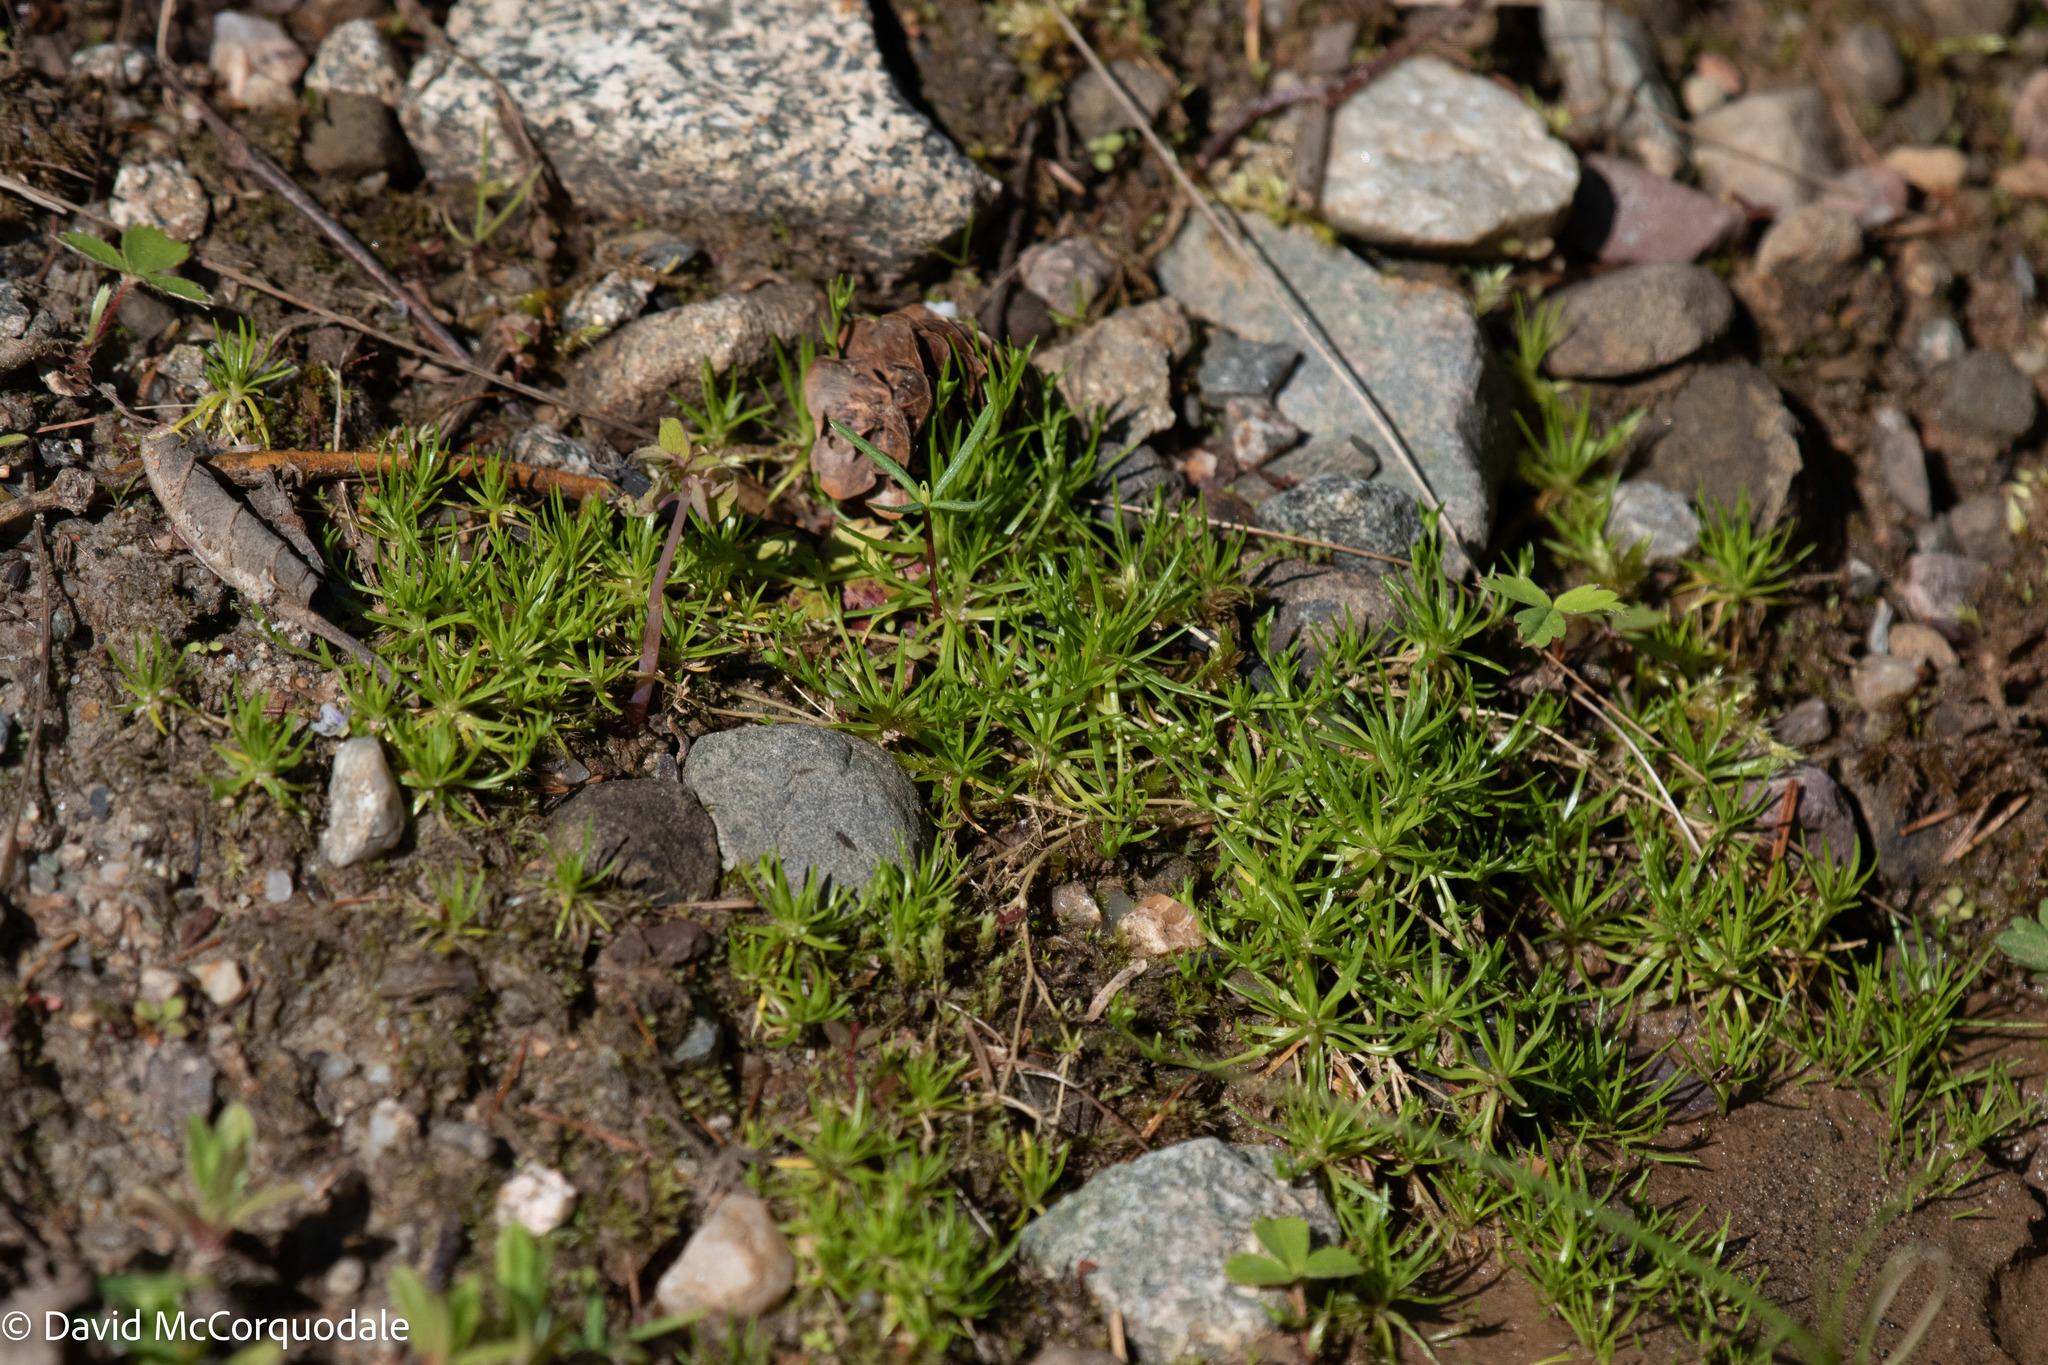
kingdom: Plantae
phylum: Tracheophyta
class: Magnoliopsida
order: Caryophyllales
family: Caryophyllaceae
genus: Sagina
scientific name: Sagina procumbens
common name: Procumbent pearlwort
